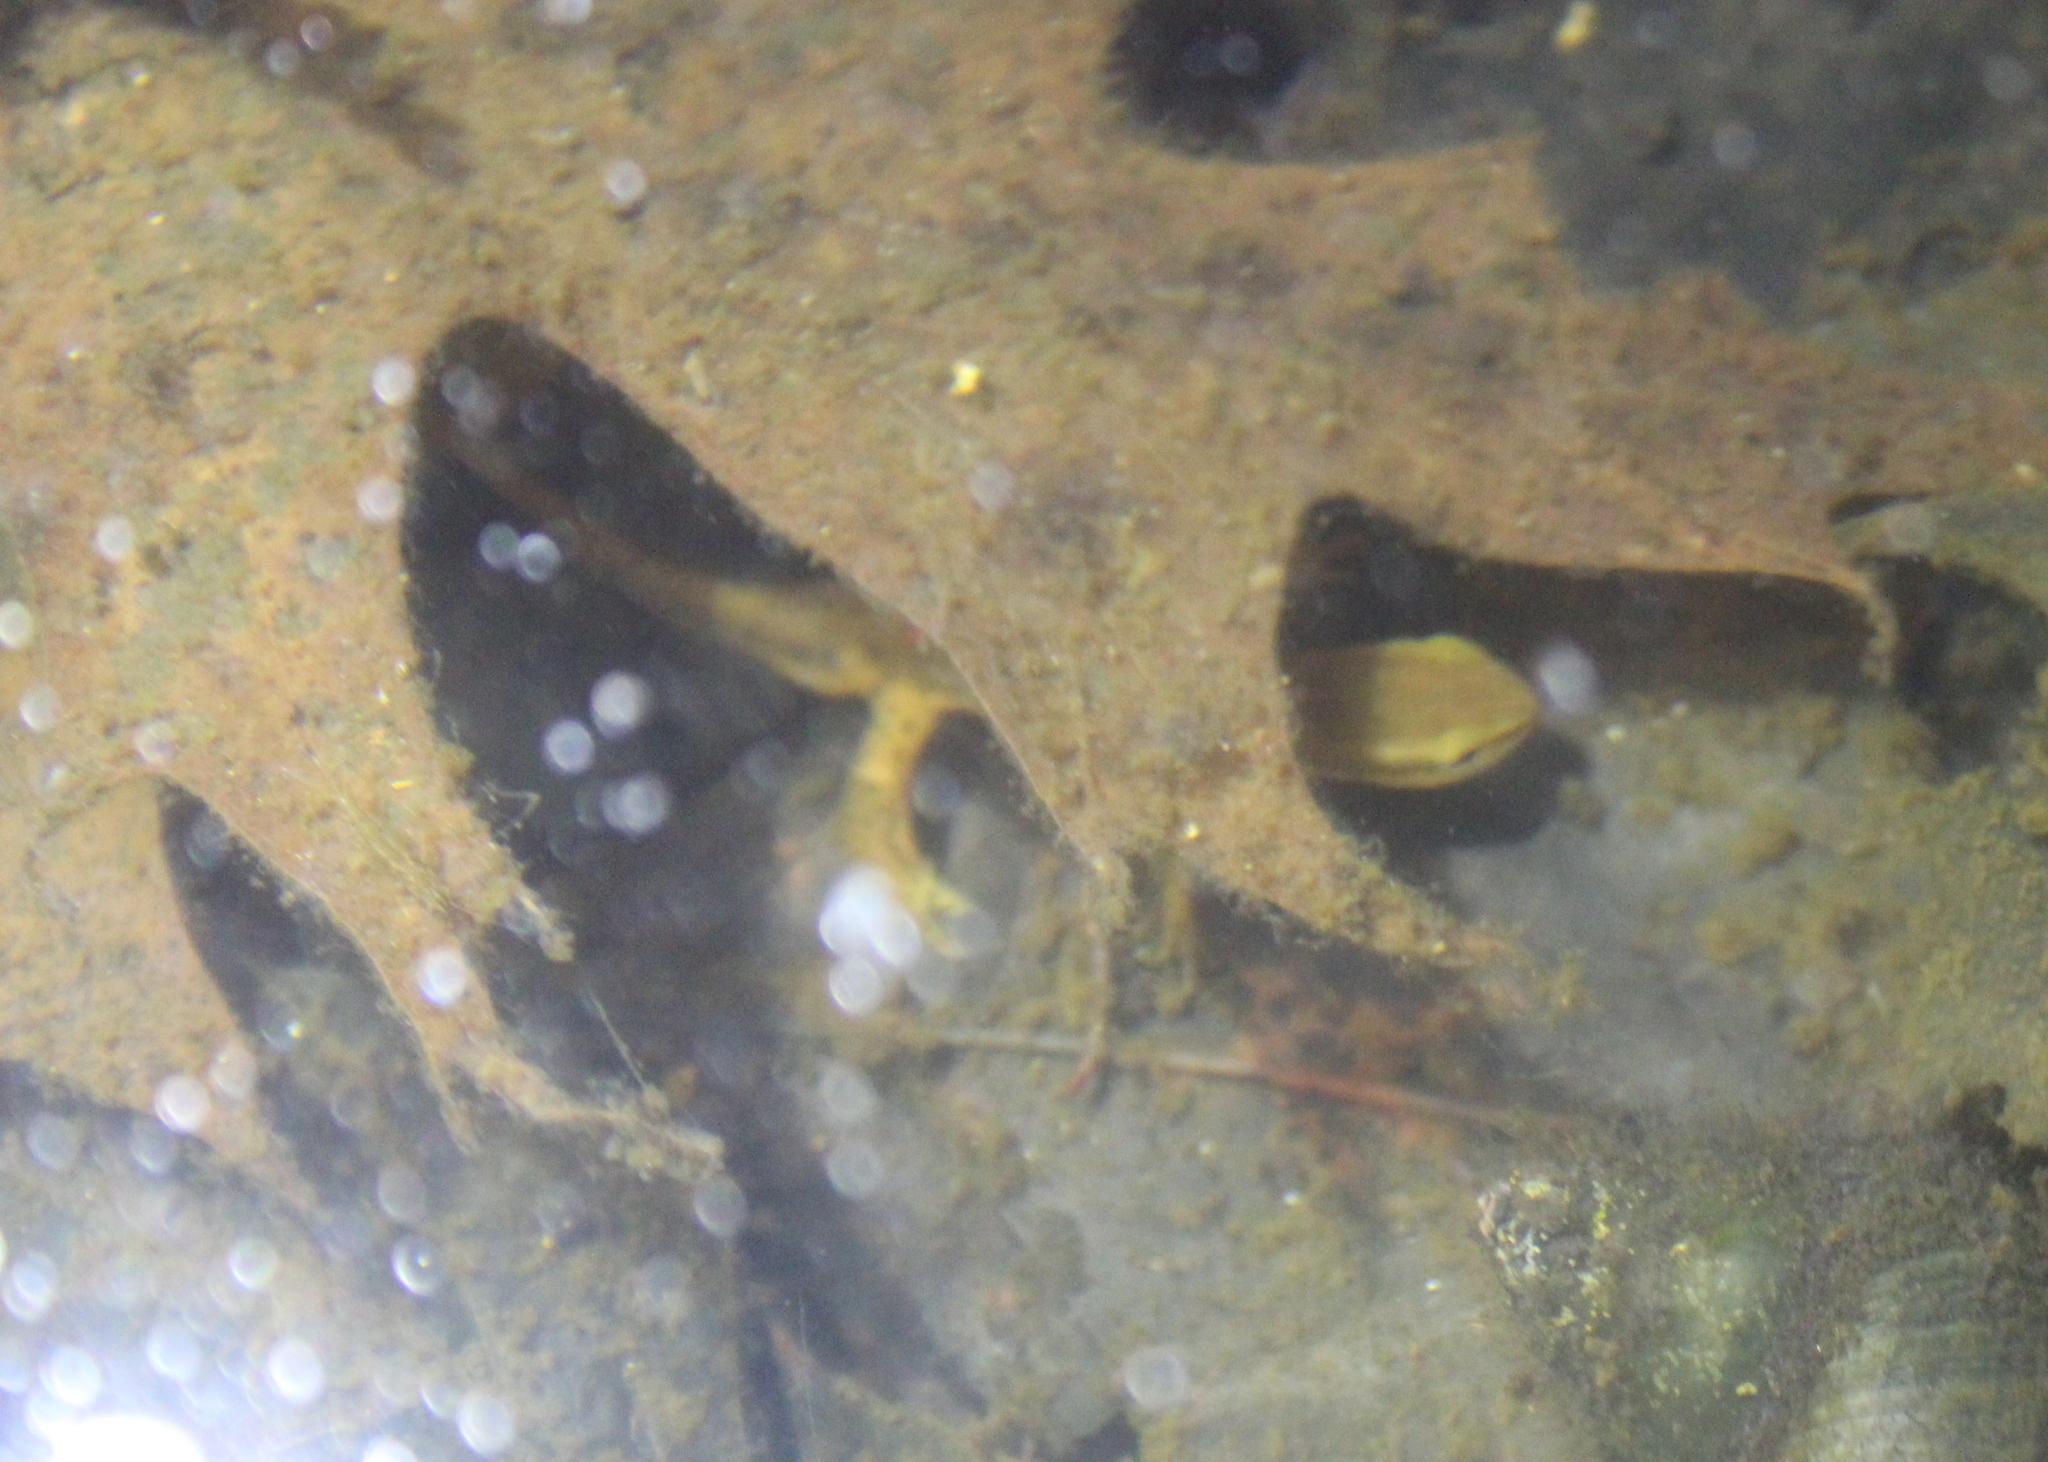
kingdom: Animalia
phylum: Chordata
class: Amphibia
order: Caudata
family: Salamandridae
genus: Notophthalmus
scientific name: Notophthalmus viridescens
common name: Eastern newt
